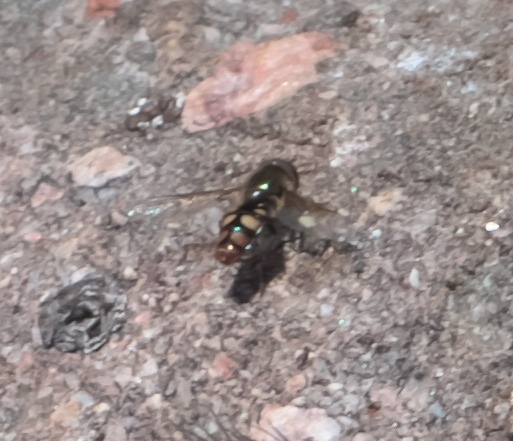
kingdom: Animalia
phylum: Arthropoda
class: Insecta
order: Diptera
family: Syrphidae
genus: Eupeodes
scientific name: Eupeodes flukei
